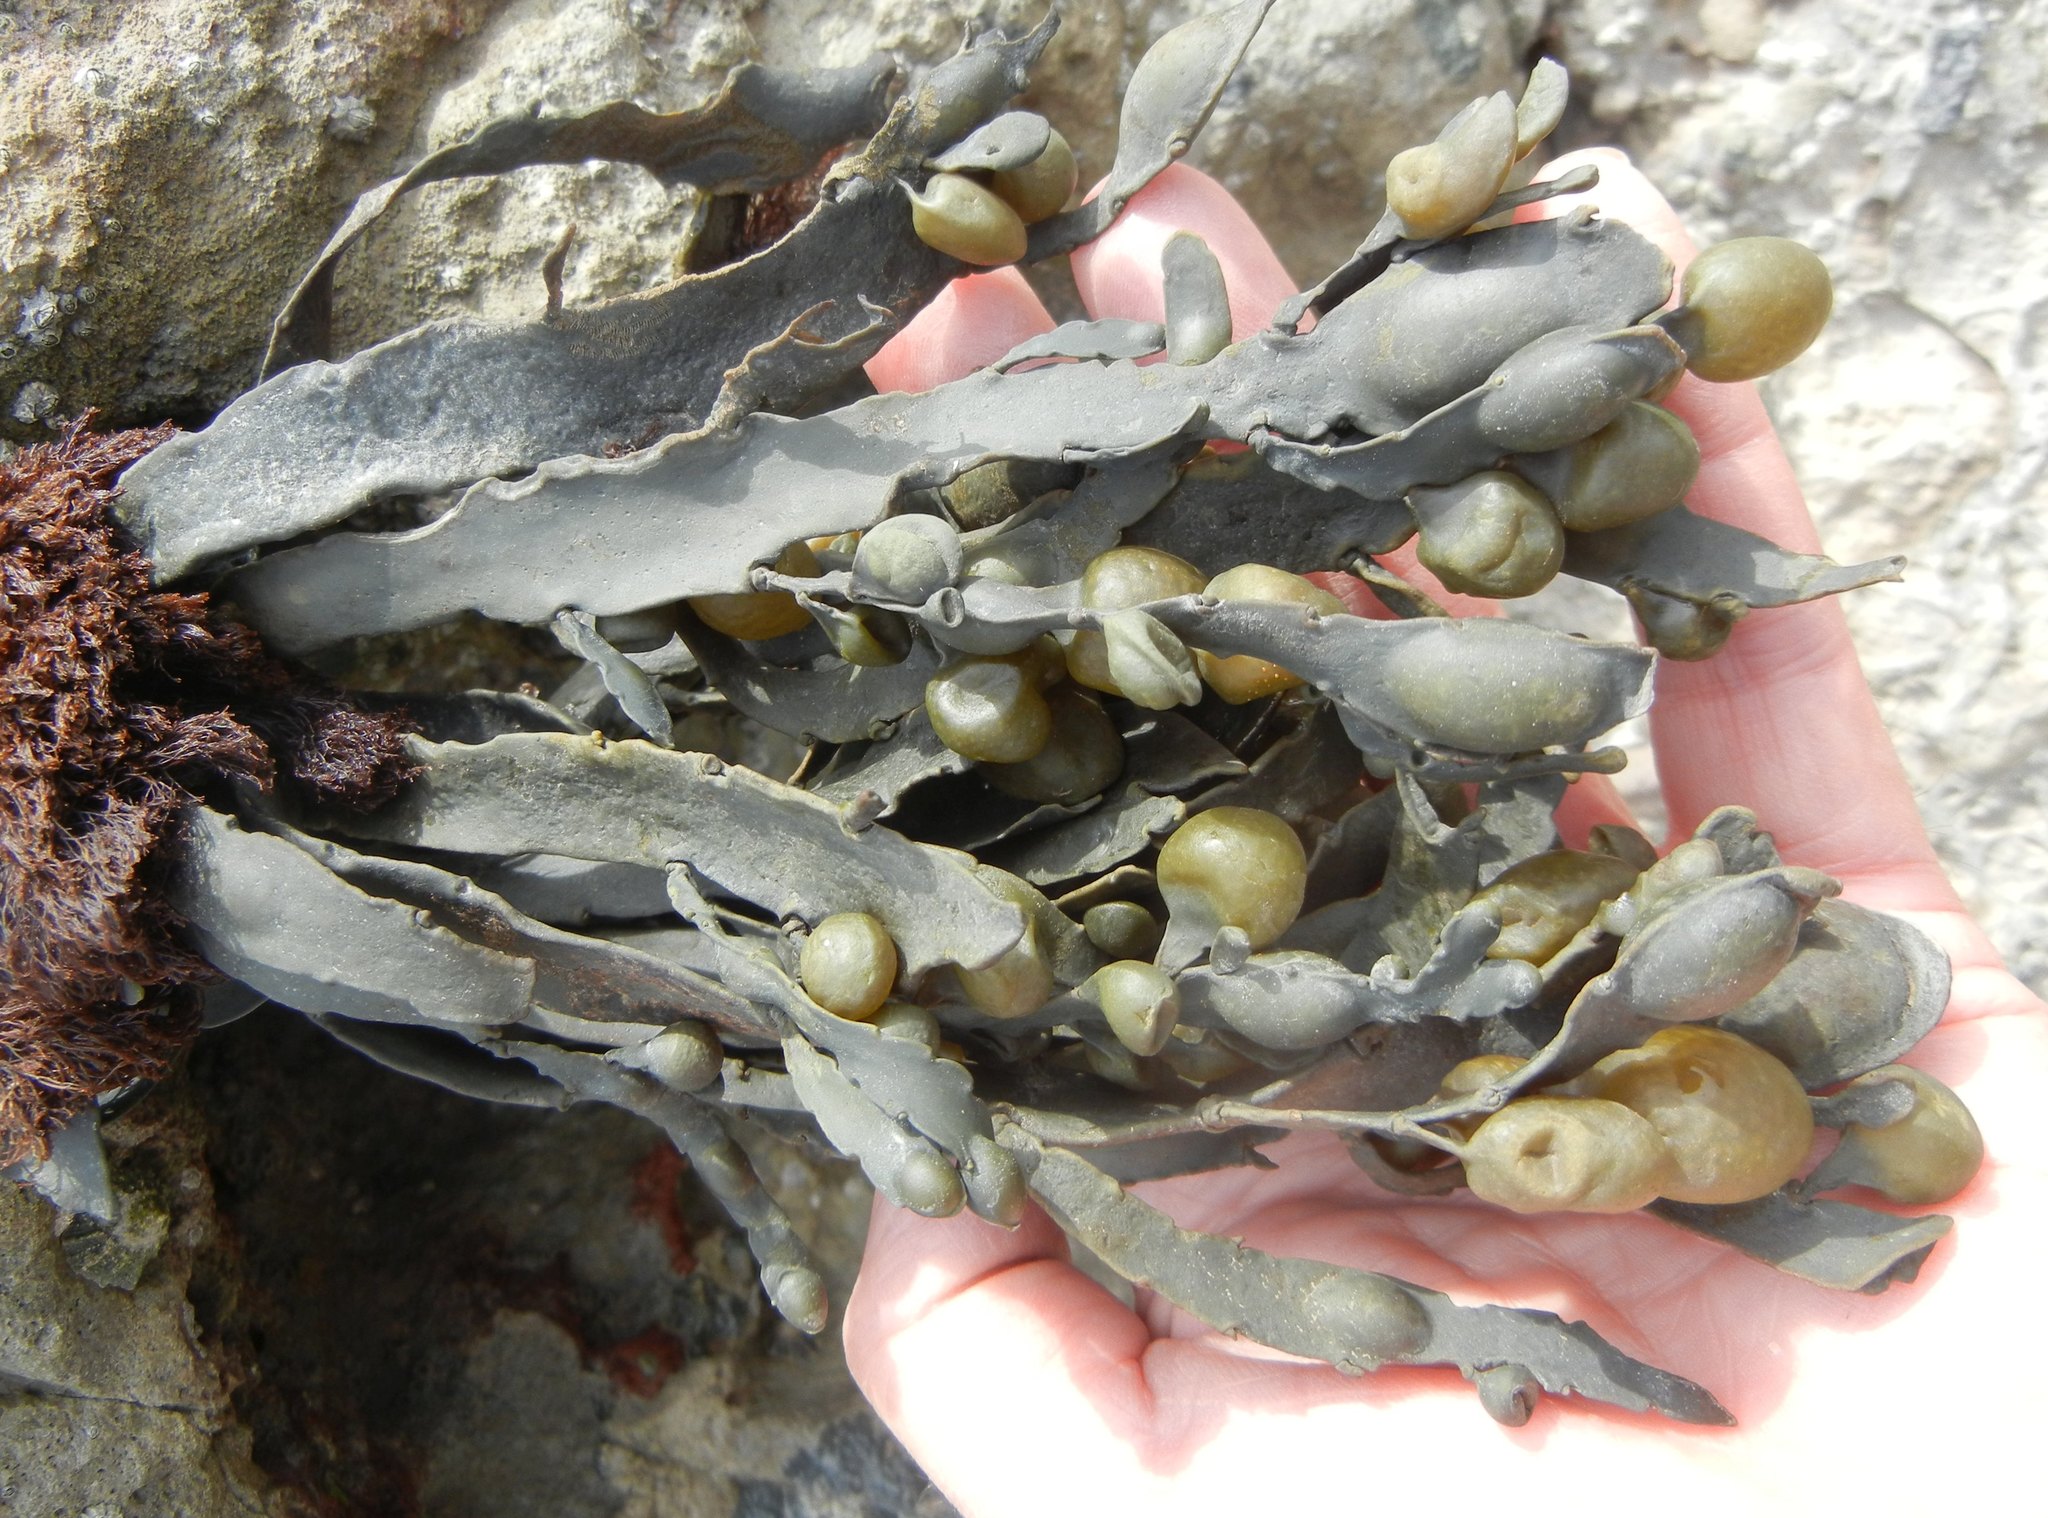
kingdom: Chromista
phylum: Ochrophyta
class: Phaeophyceae
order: Fucales
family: Fucaceae
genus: Ascophyllum
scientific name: Ascophyllum nodosum
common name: Knotted wrack
